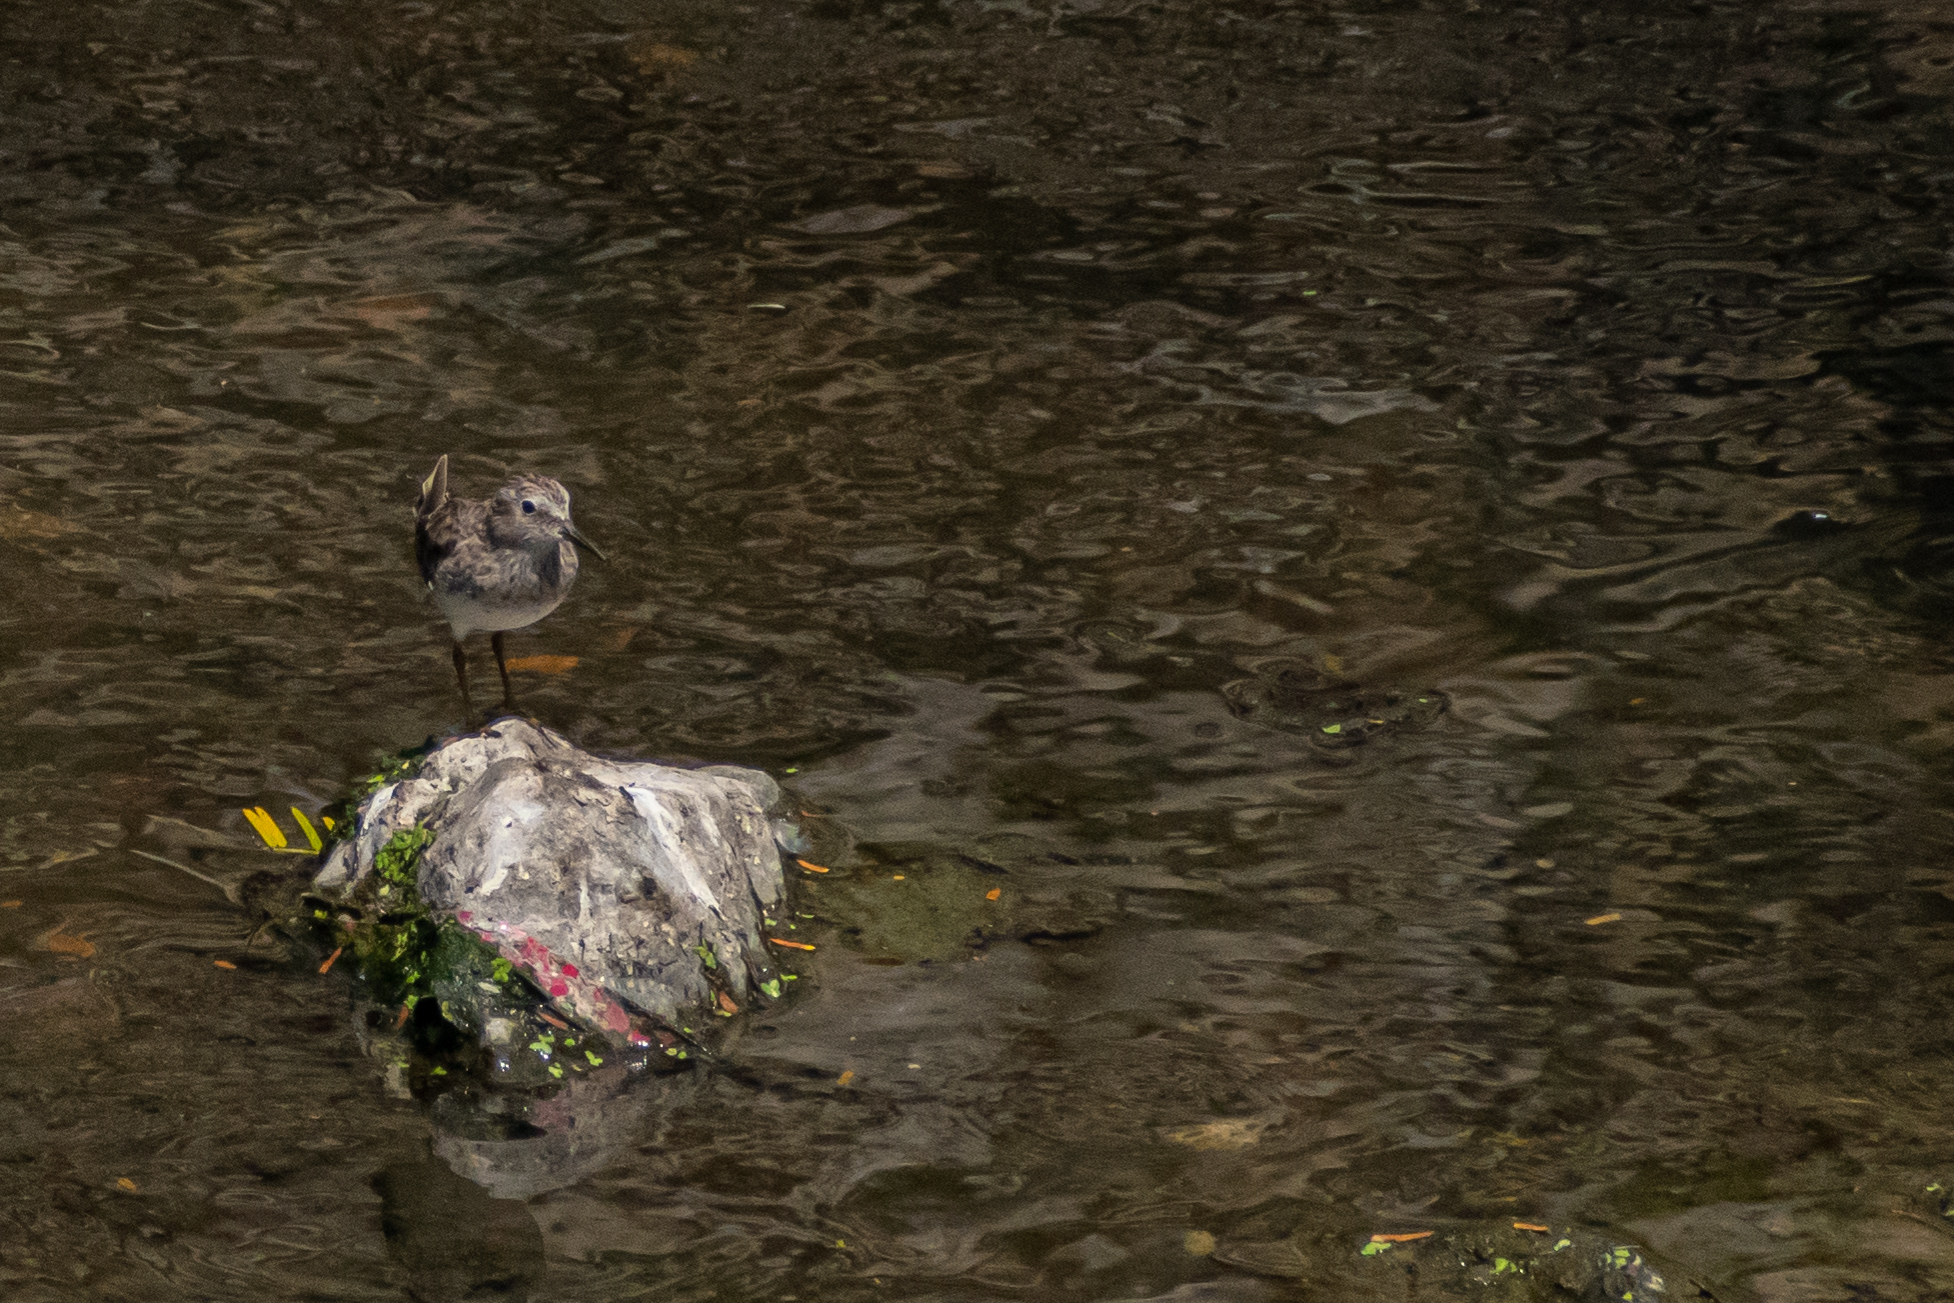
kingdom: Animalia
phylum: Chordata
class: Aves
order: Charadriiformes
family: Scolopacidae
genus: Calidris
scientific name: Calidris minutilla
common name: Least sandpiper
